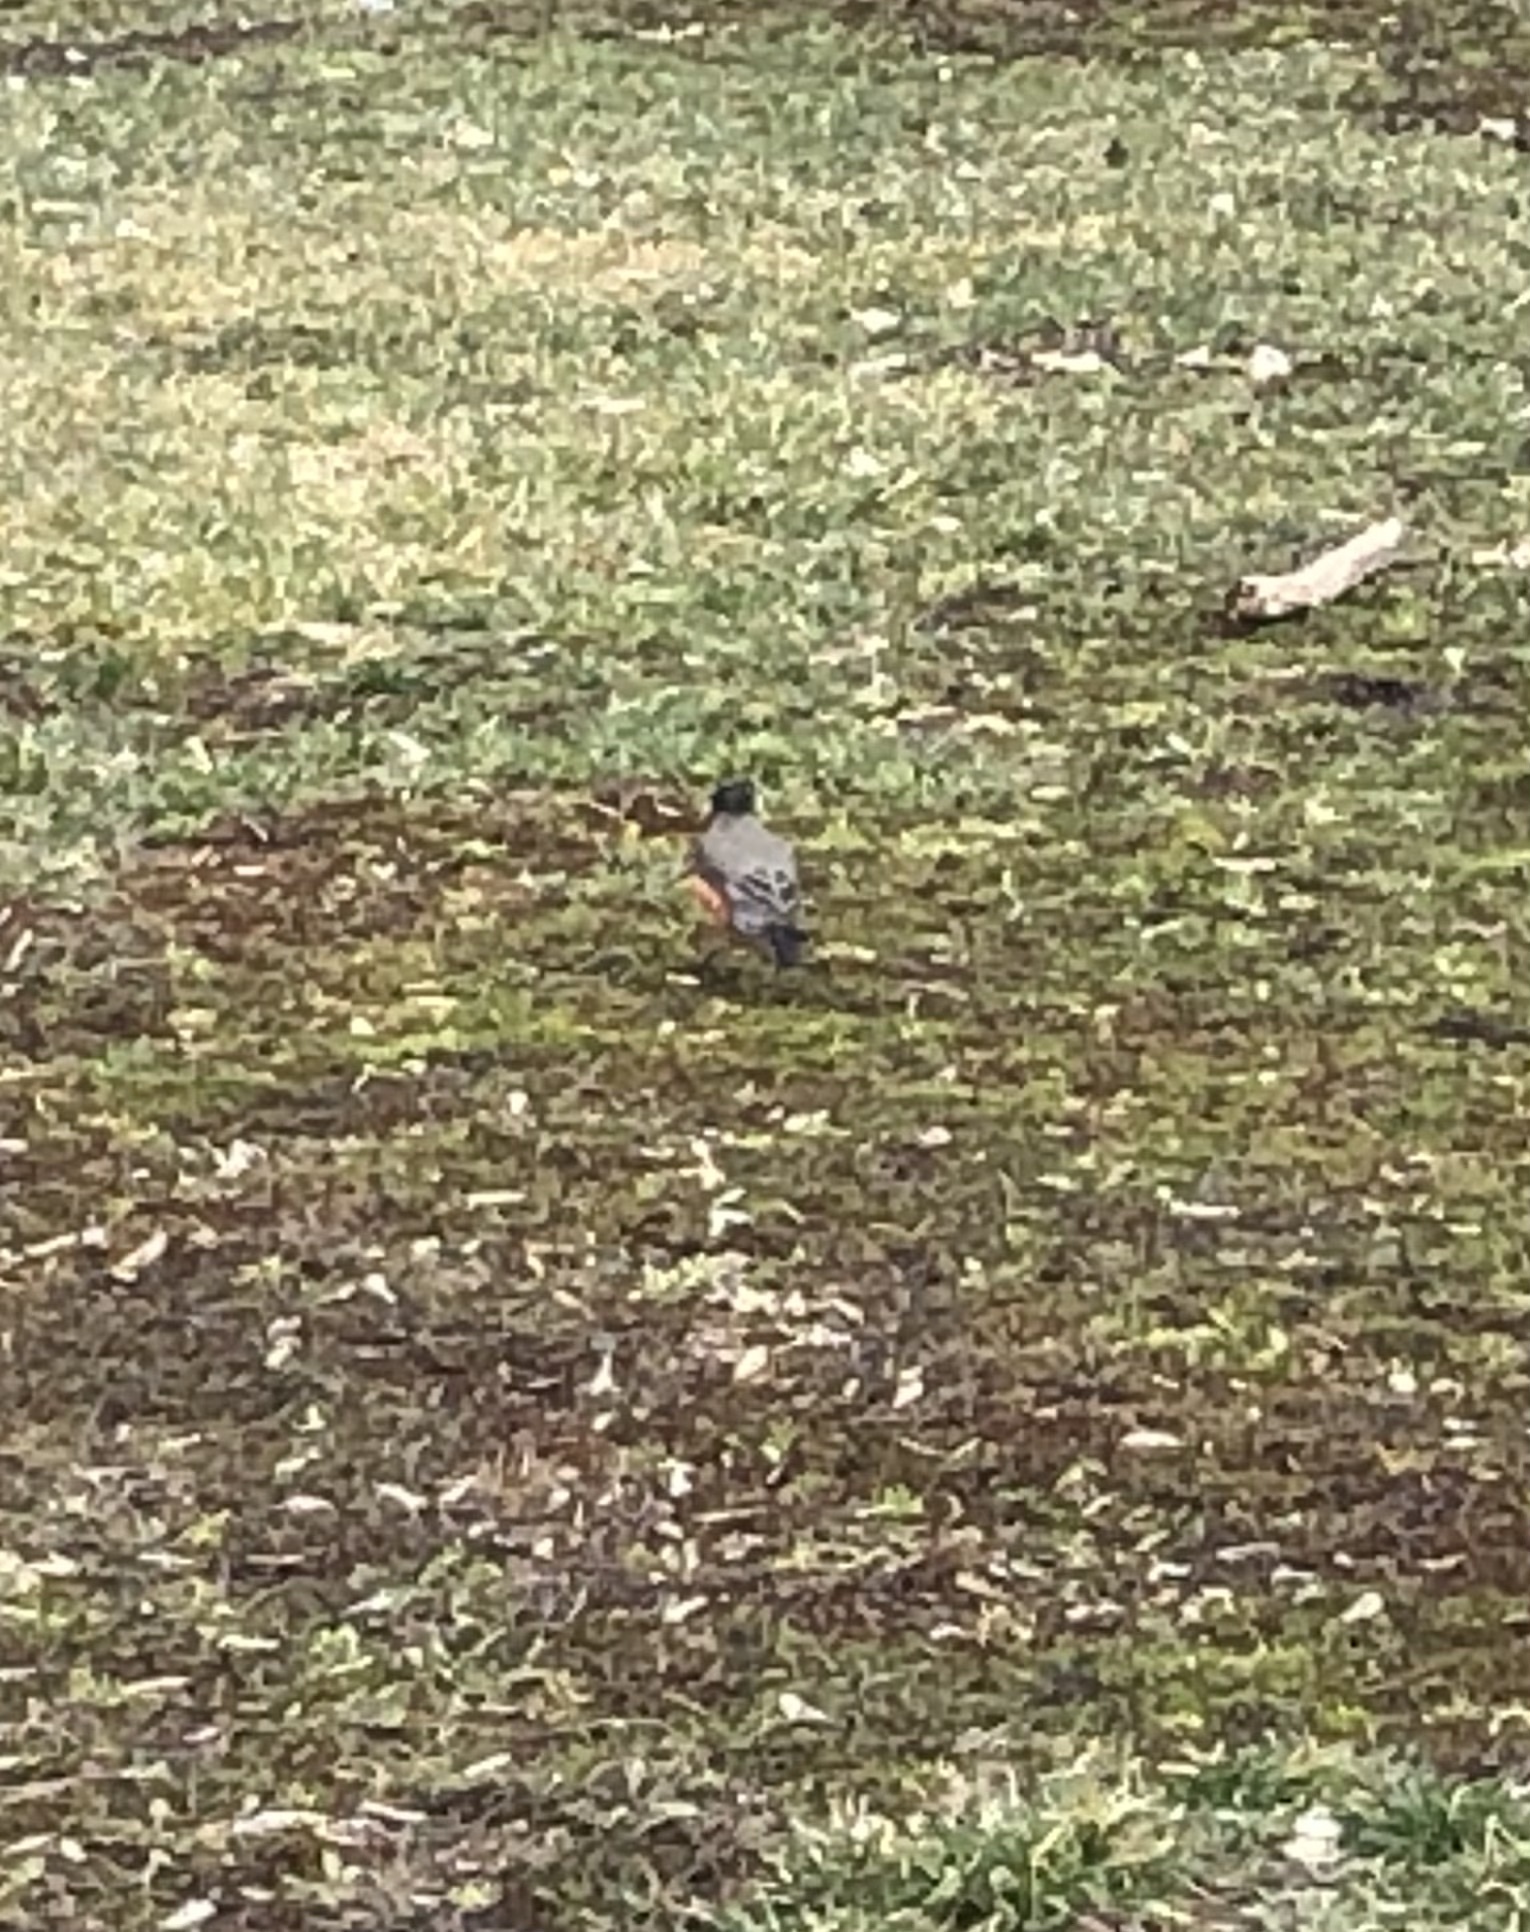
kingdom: Animalia
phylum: Chordata
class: Aves
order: Passeriformes
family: Turdidae
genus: Turdus
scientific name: Turdus migratorius
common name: American robin
